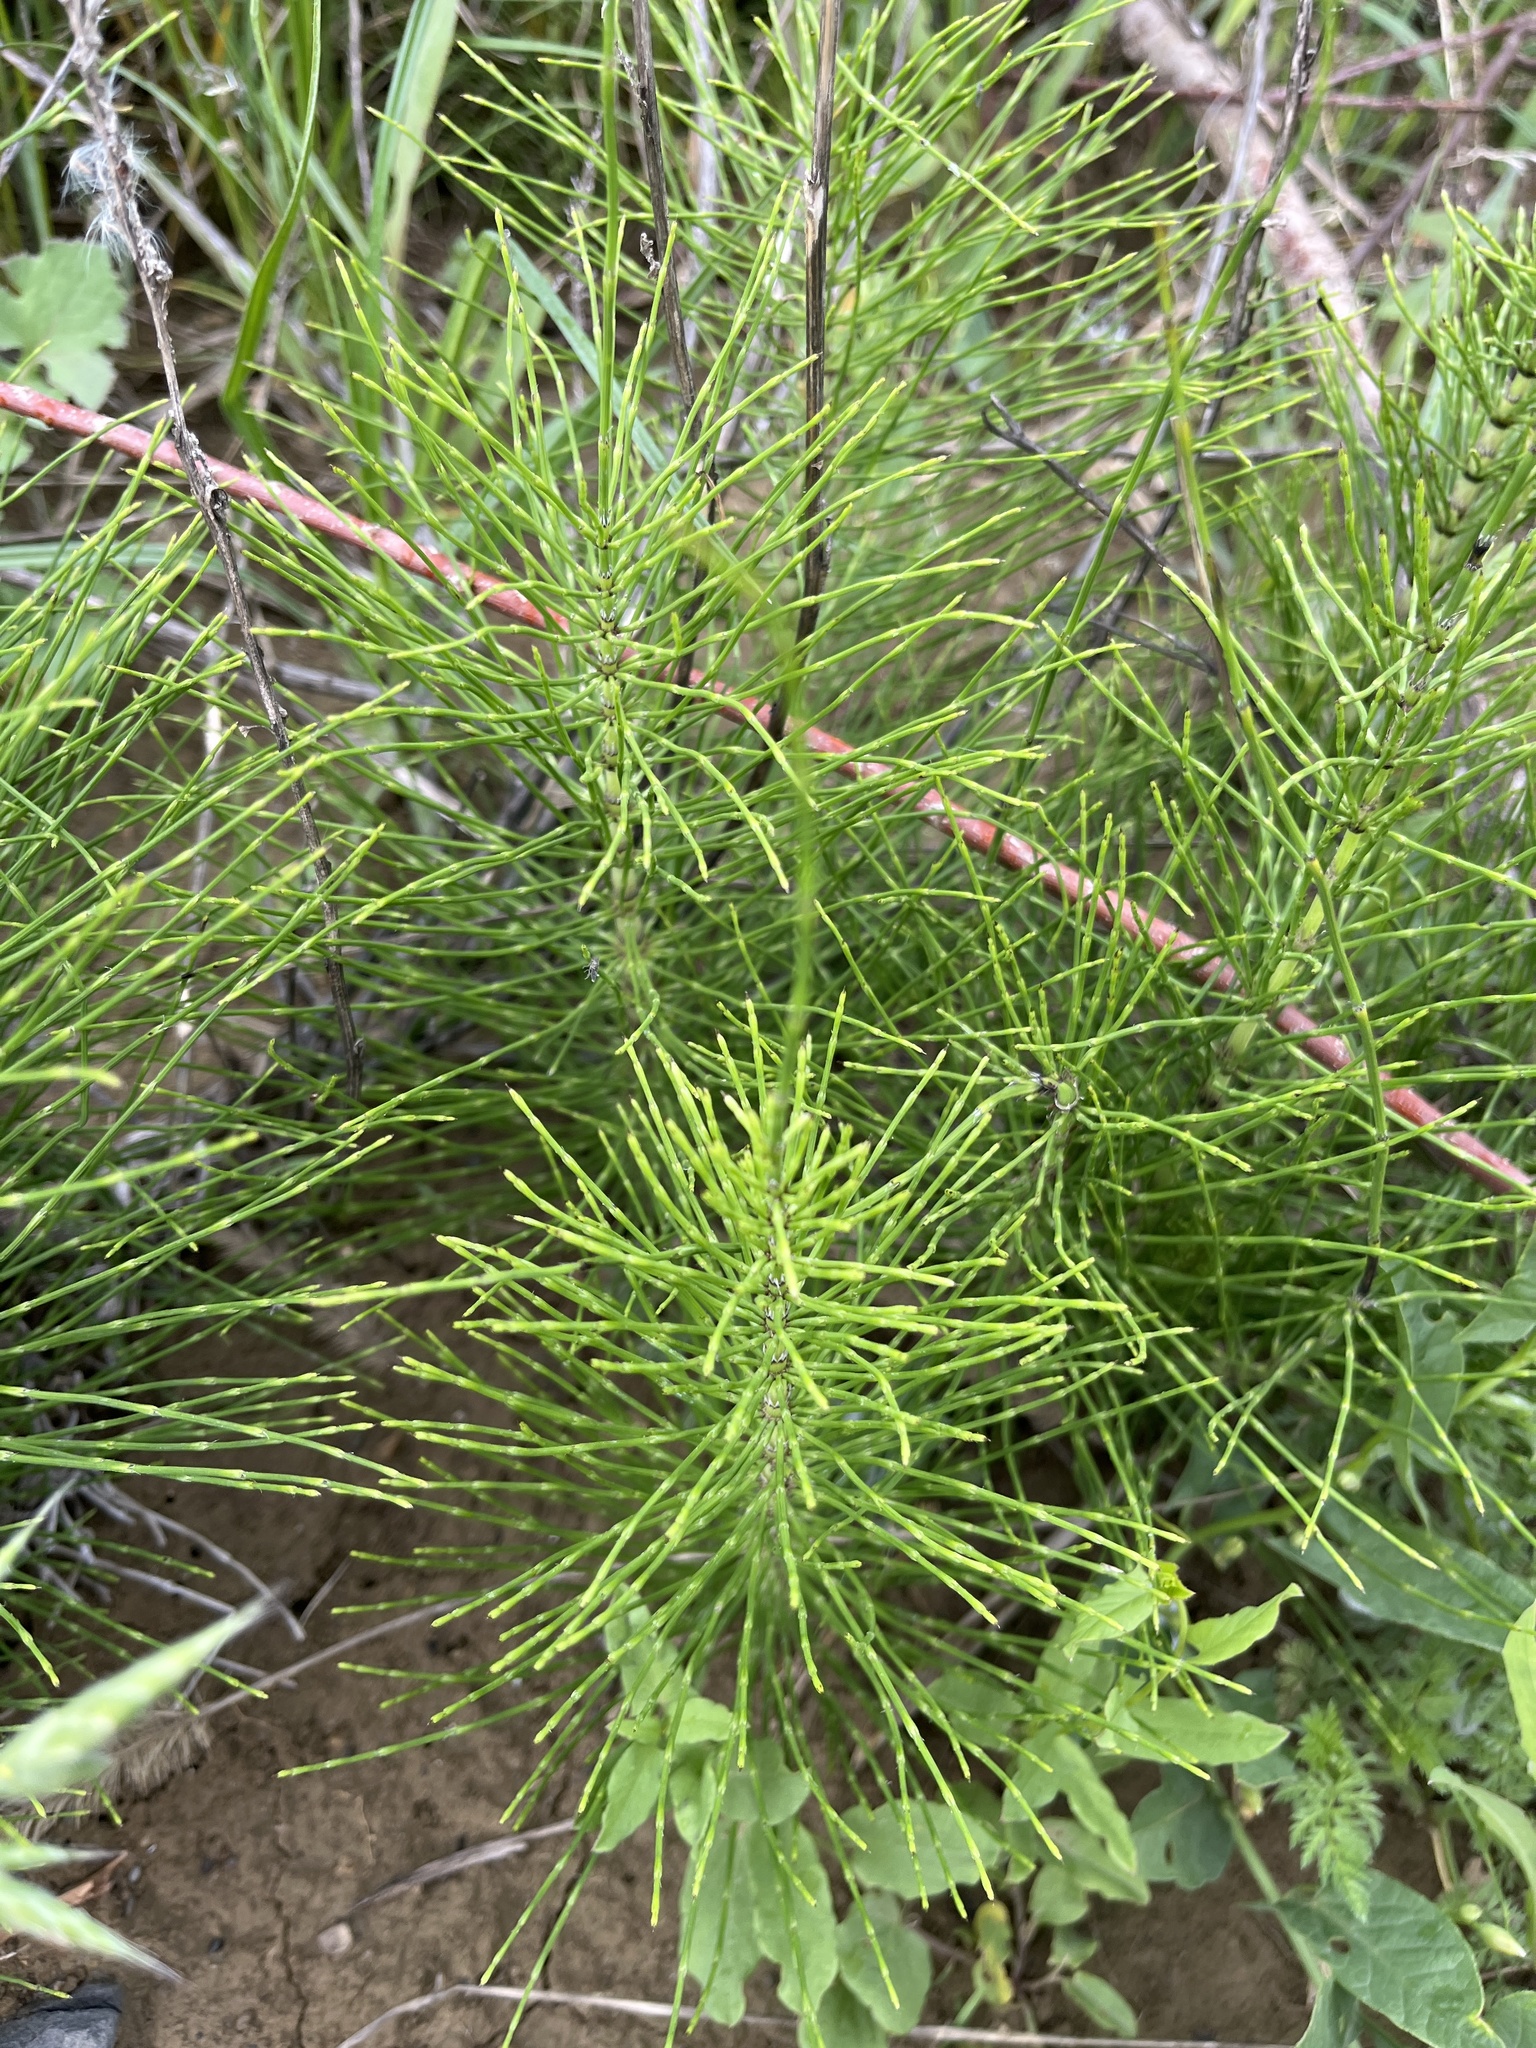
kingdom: Plantae
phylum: Tracheophyta
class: Polypodiopsida
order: Equisetales
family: Equisetaceae
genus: Equisetum
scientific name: Equisetum telmateia
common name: Great horsetail
